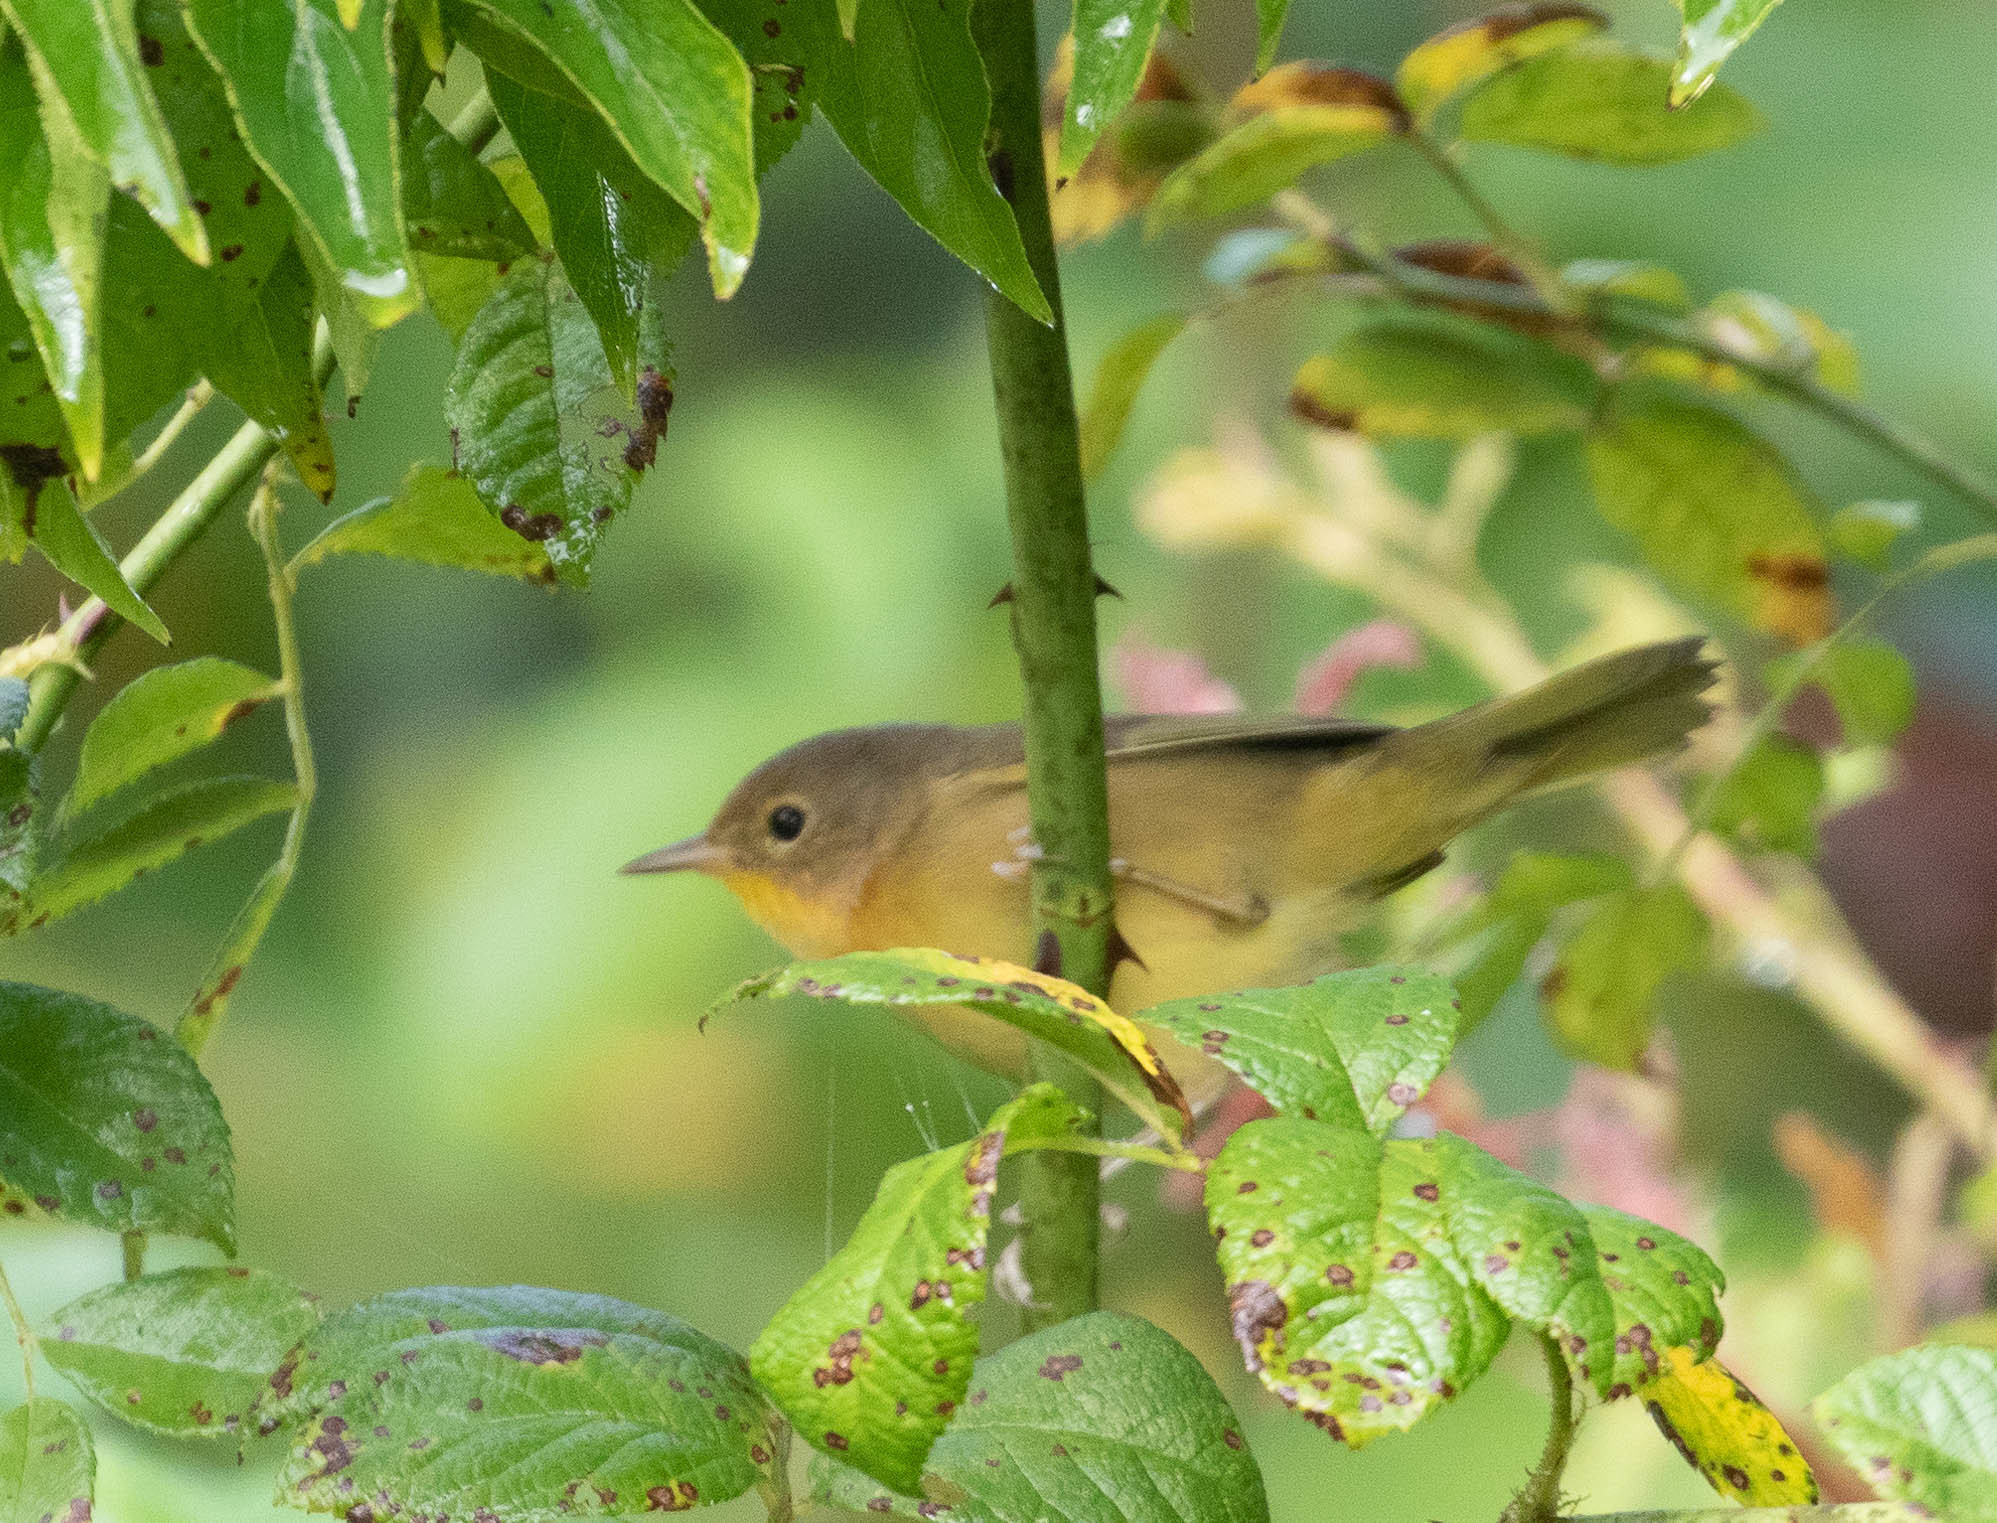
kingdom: Animalia
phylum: Chordata
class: Aves
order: Passeriformes
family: Parulidae
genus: Geothlypis
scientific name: Geothlypis trichas
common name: Common yellowthroat
